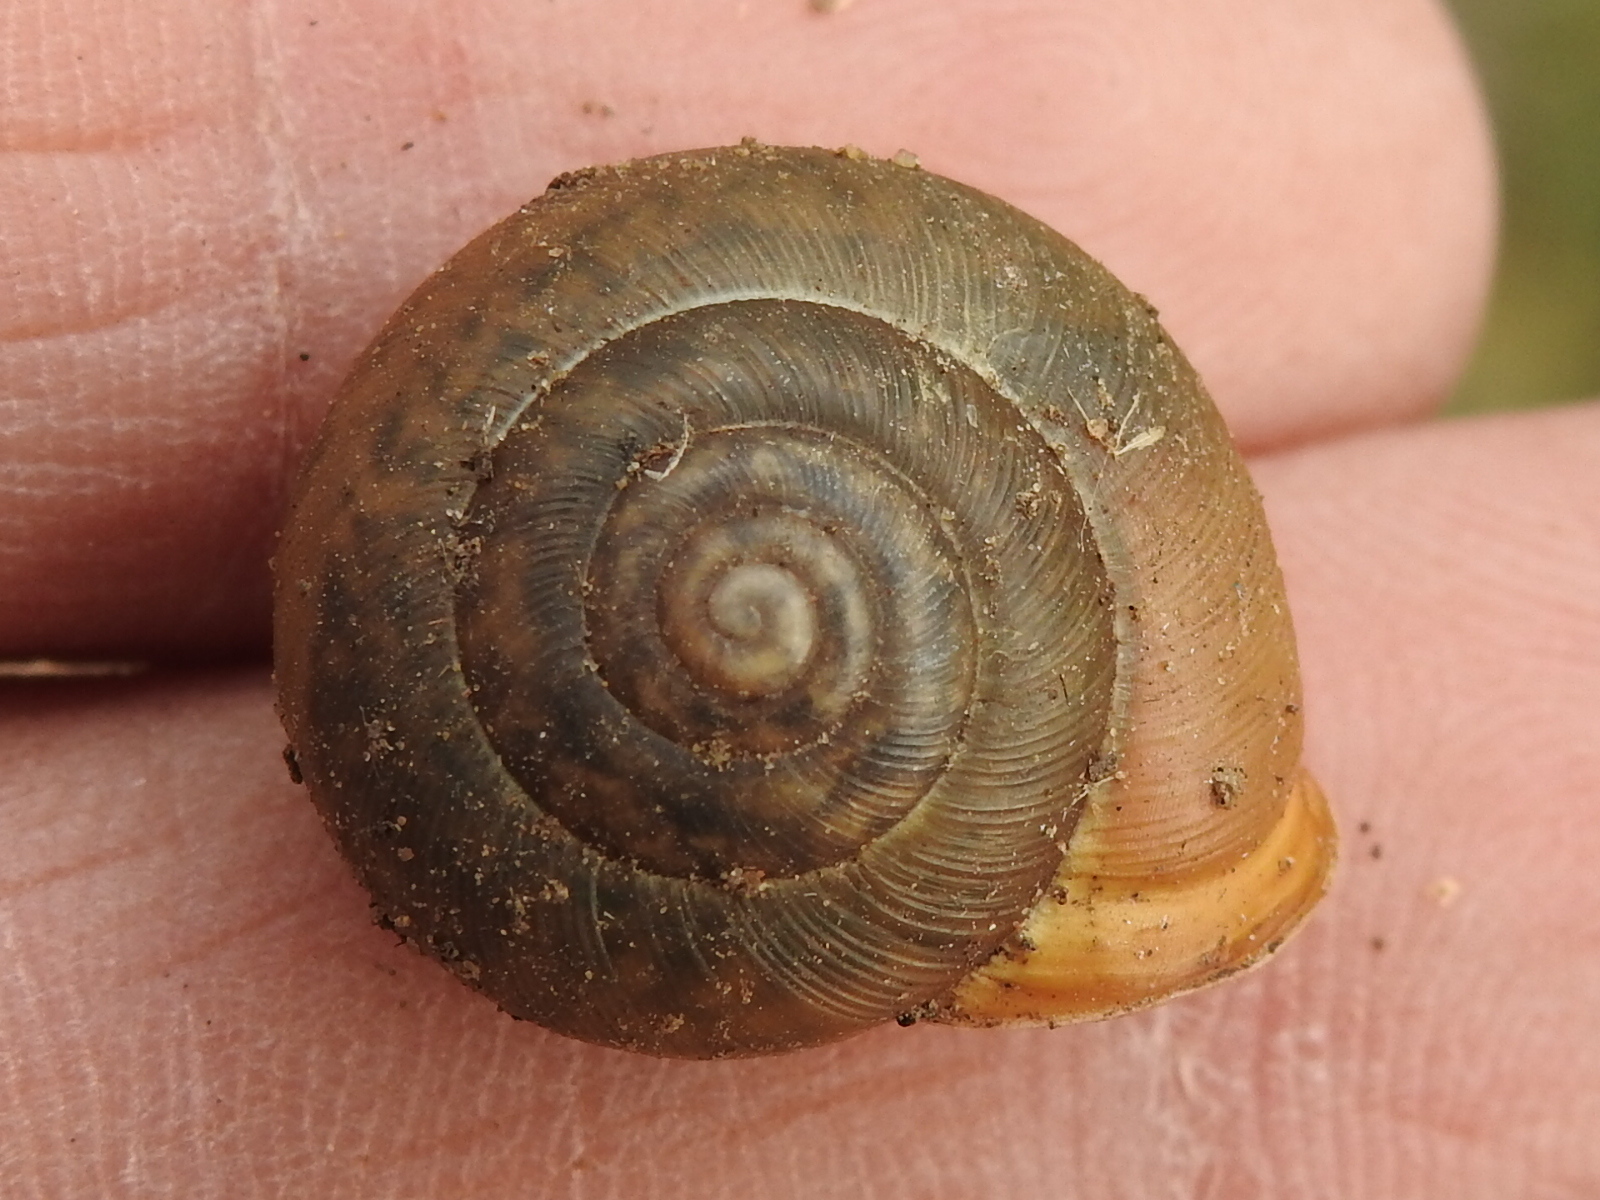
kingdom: Animalia
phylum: Mollusca
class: Gastropoda
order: Stylommatophora
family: Polygyridae
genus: Patera
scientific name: Patera roemeri
